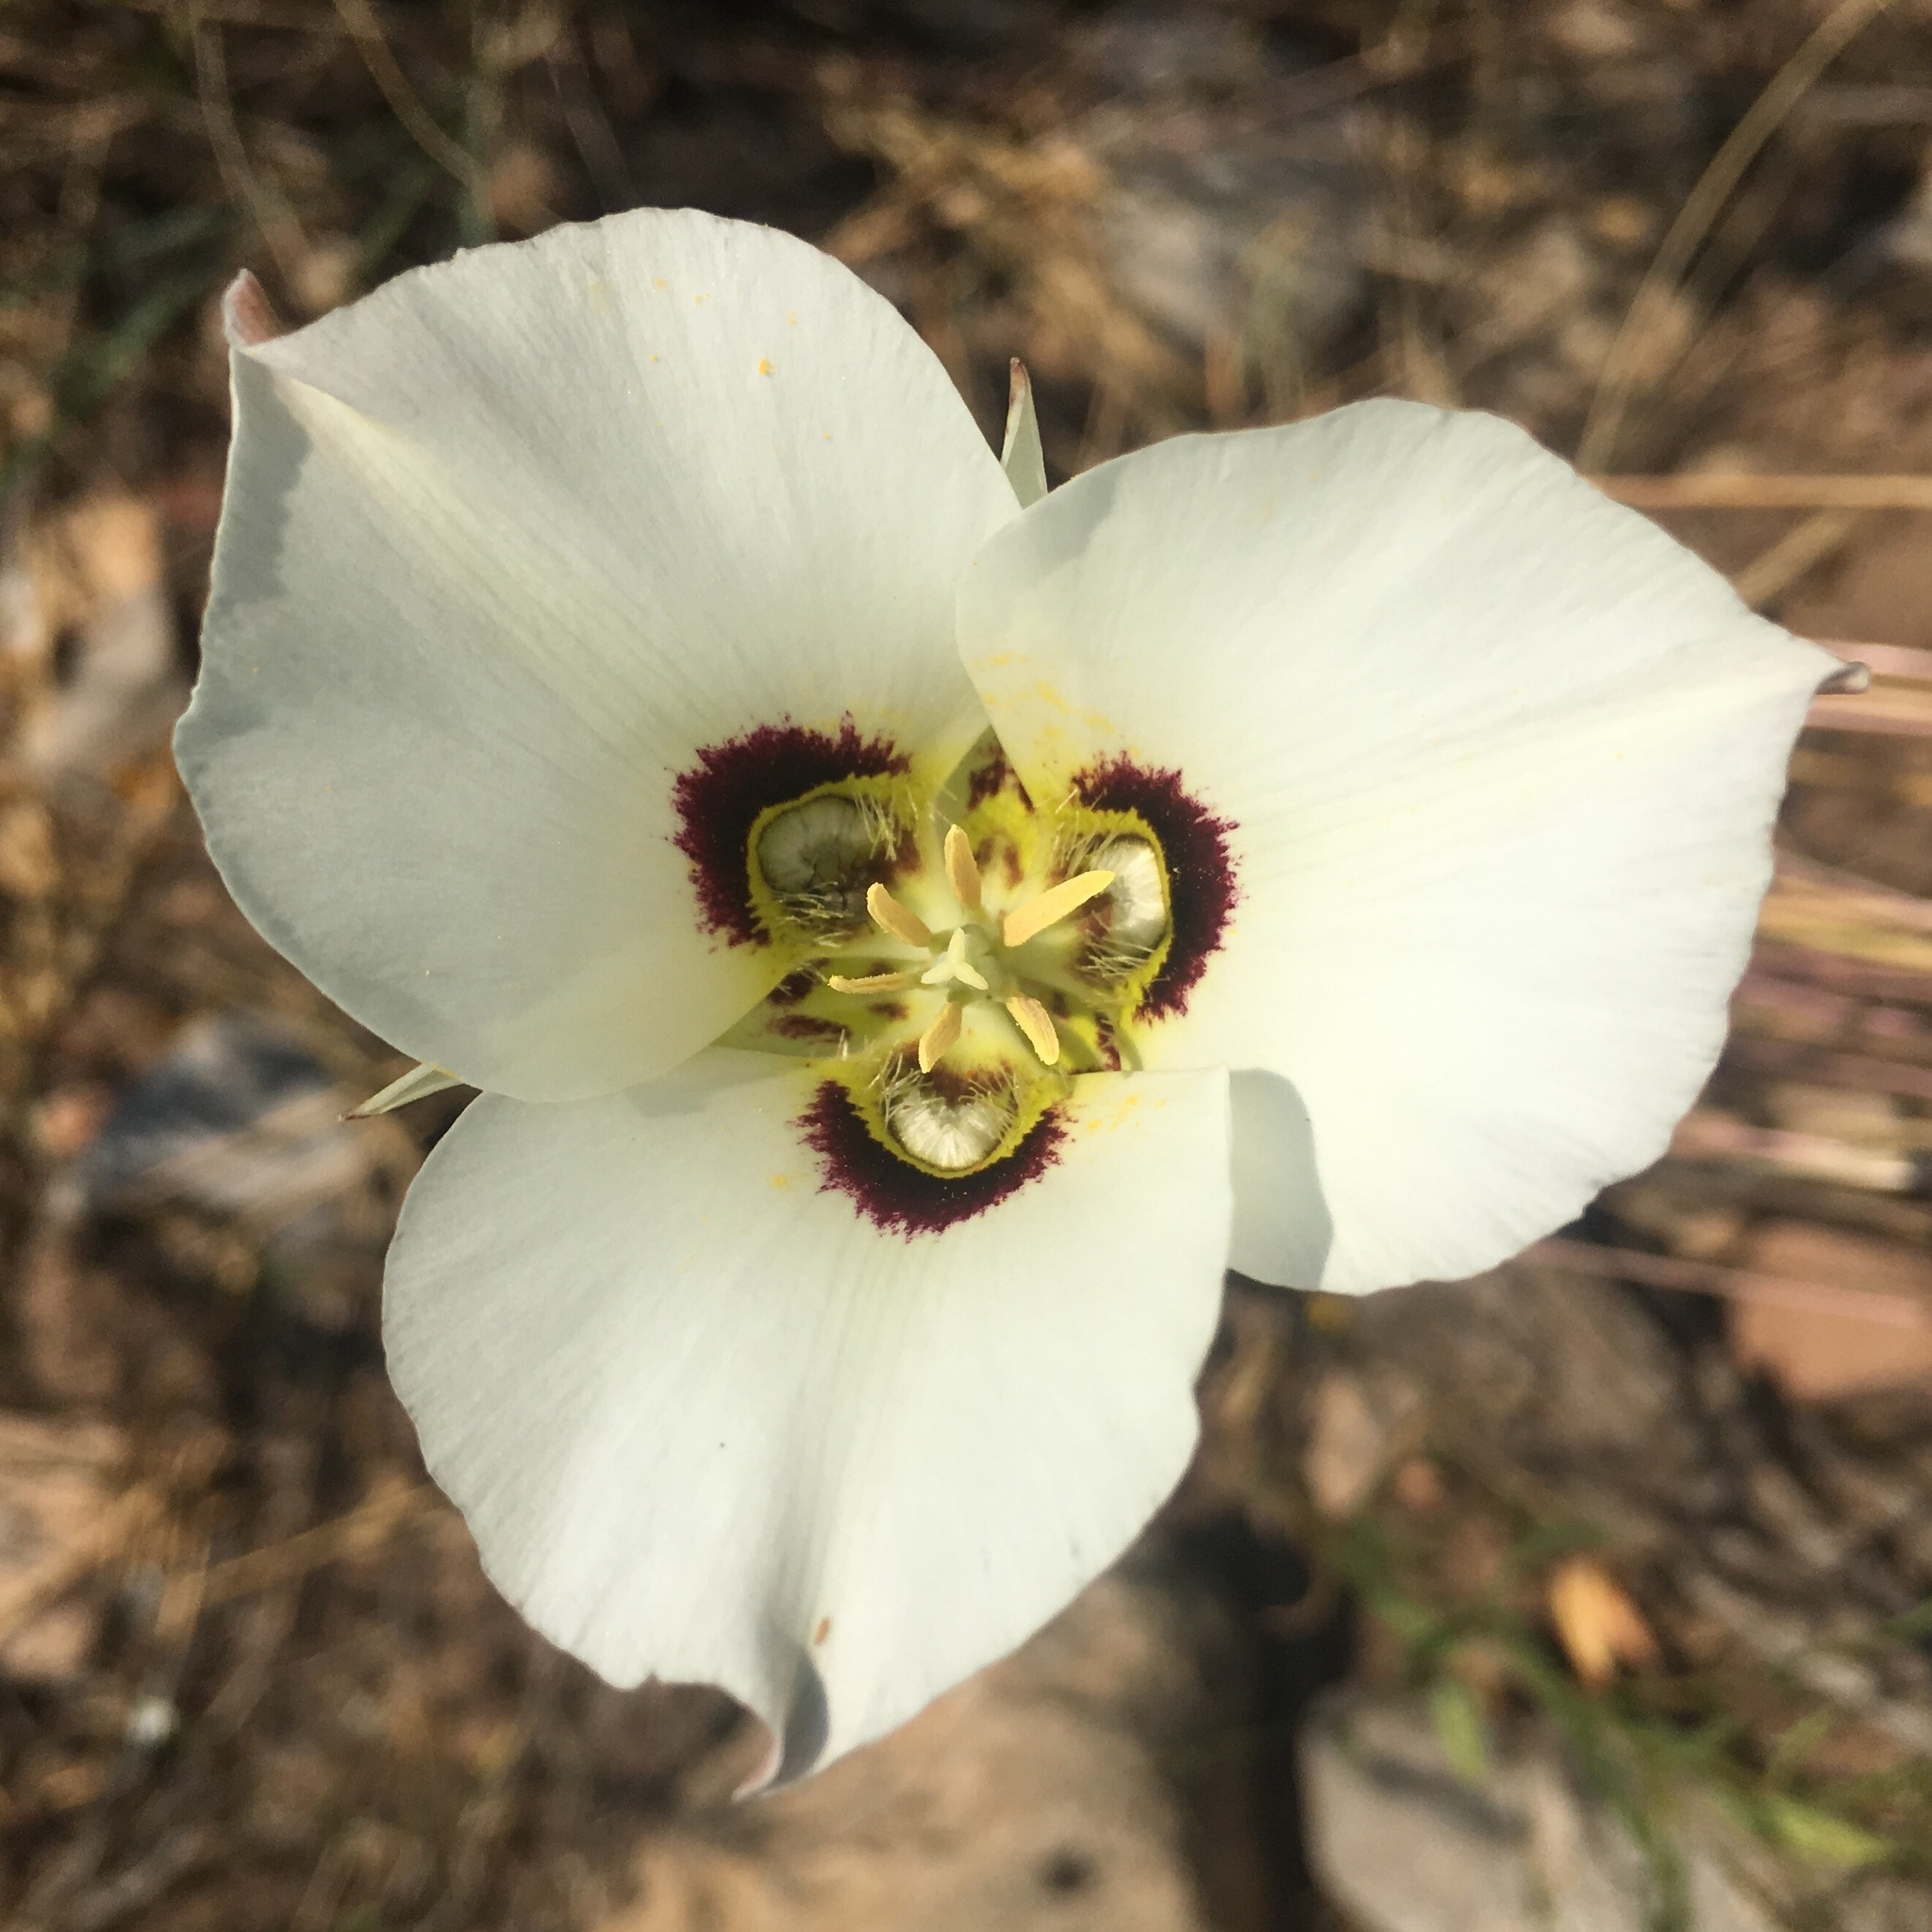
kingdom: Plantae
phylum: Tracheophyta
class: Liliopsida
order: Liliales
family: Liliaceae
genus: Calochortus
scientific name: Calochortus nuttallii
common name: Sego-lily
